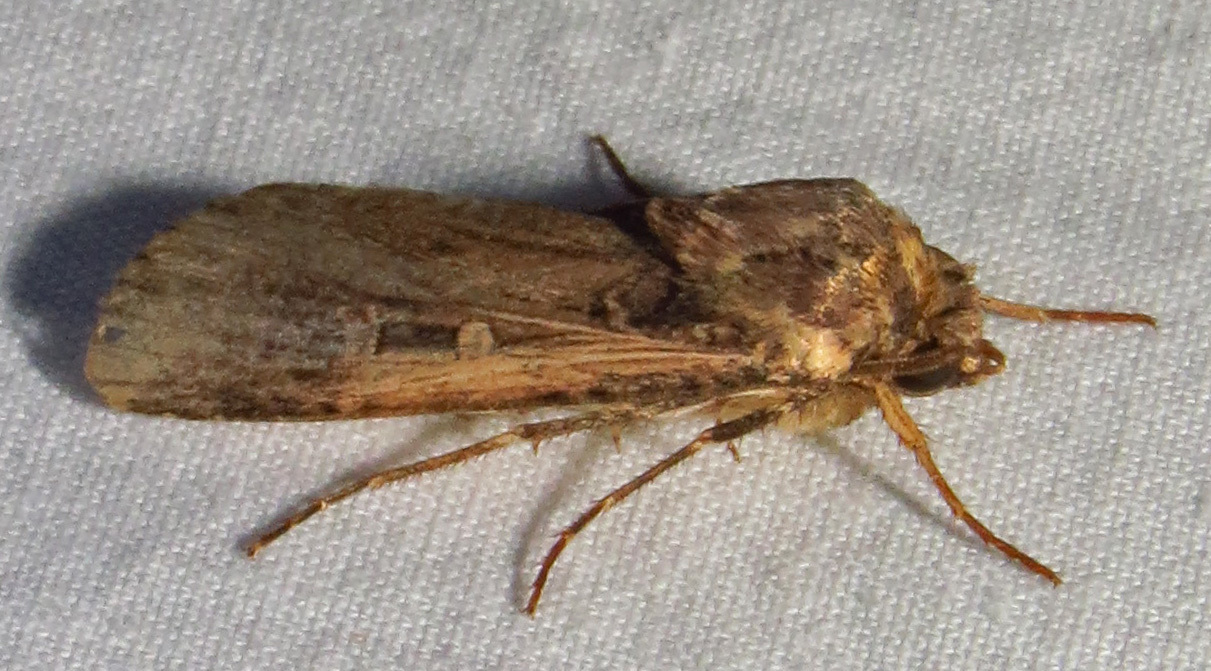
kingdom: Animalia
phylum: Arthropoda
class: Insecta
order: Lepidoptera
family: Noctuidae
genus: Feltia
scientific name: Feltia subterranea
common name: Granulate cutworm
